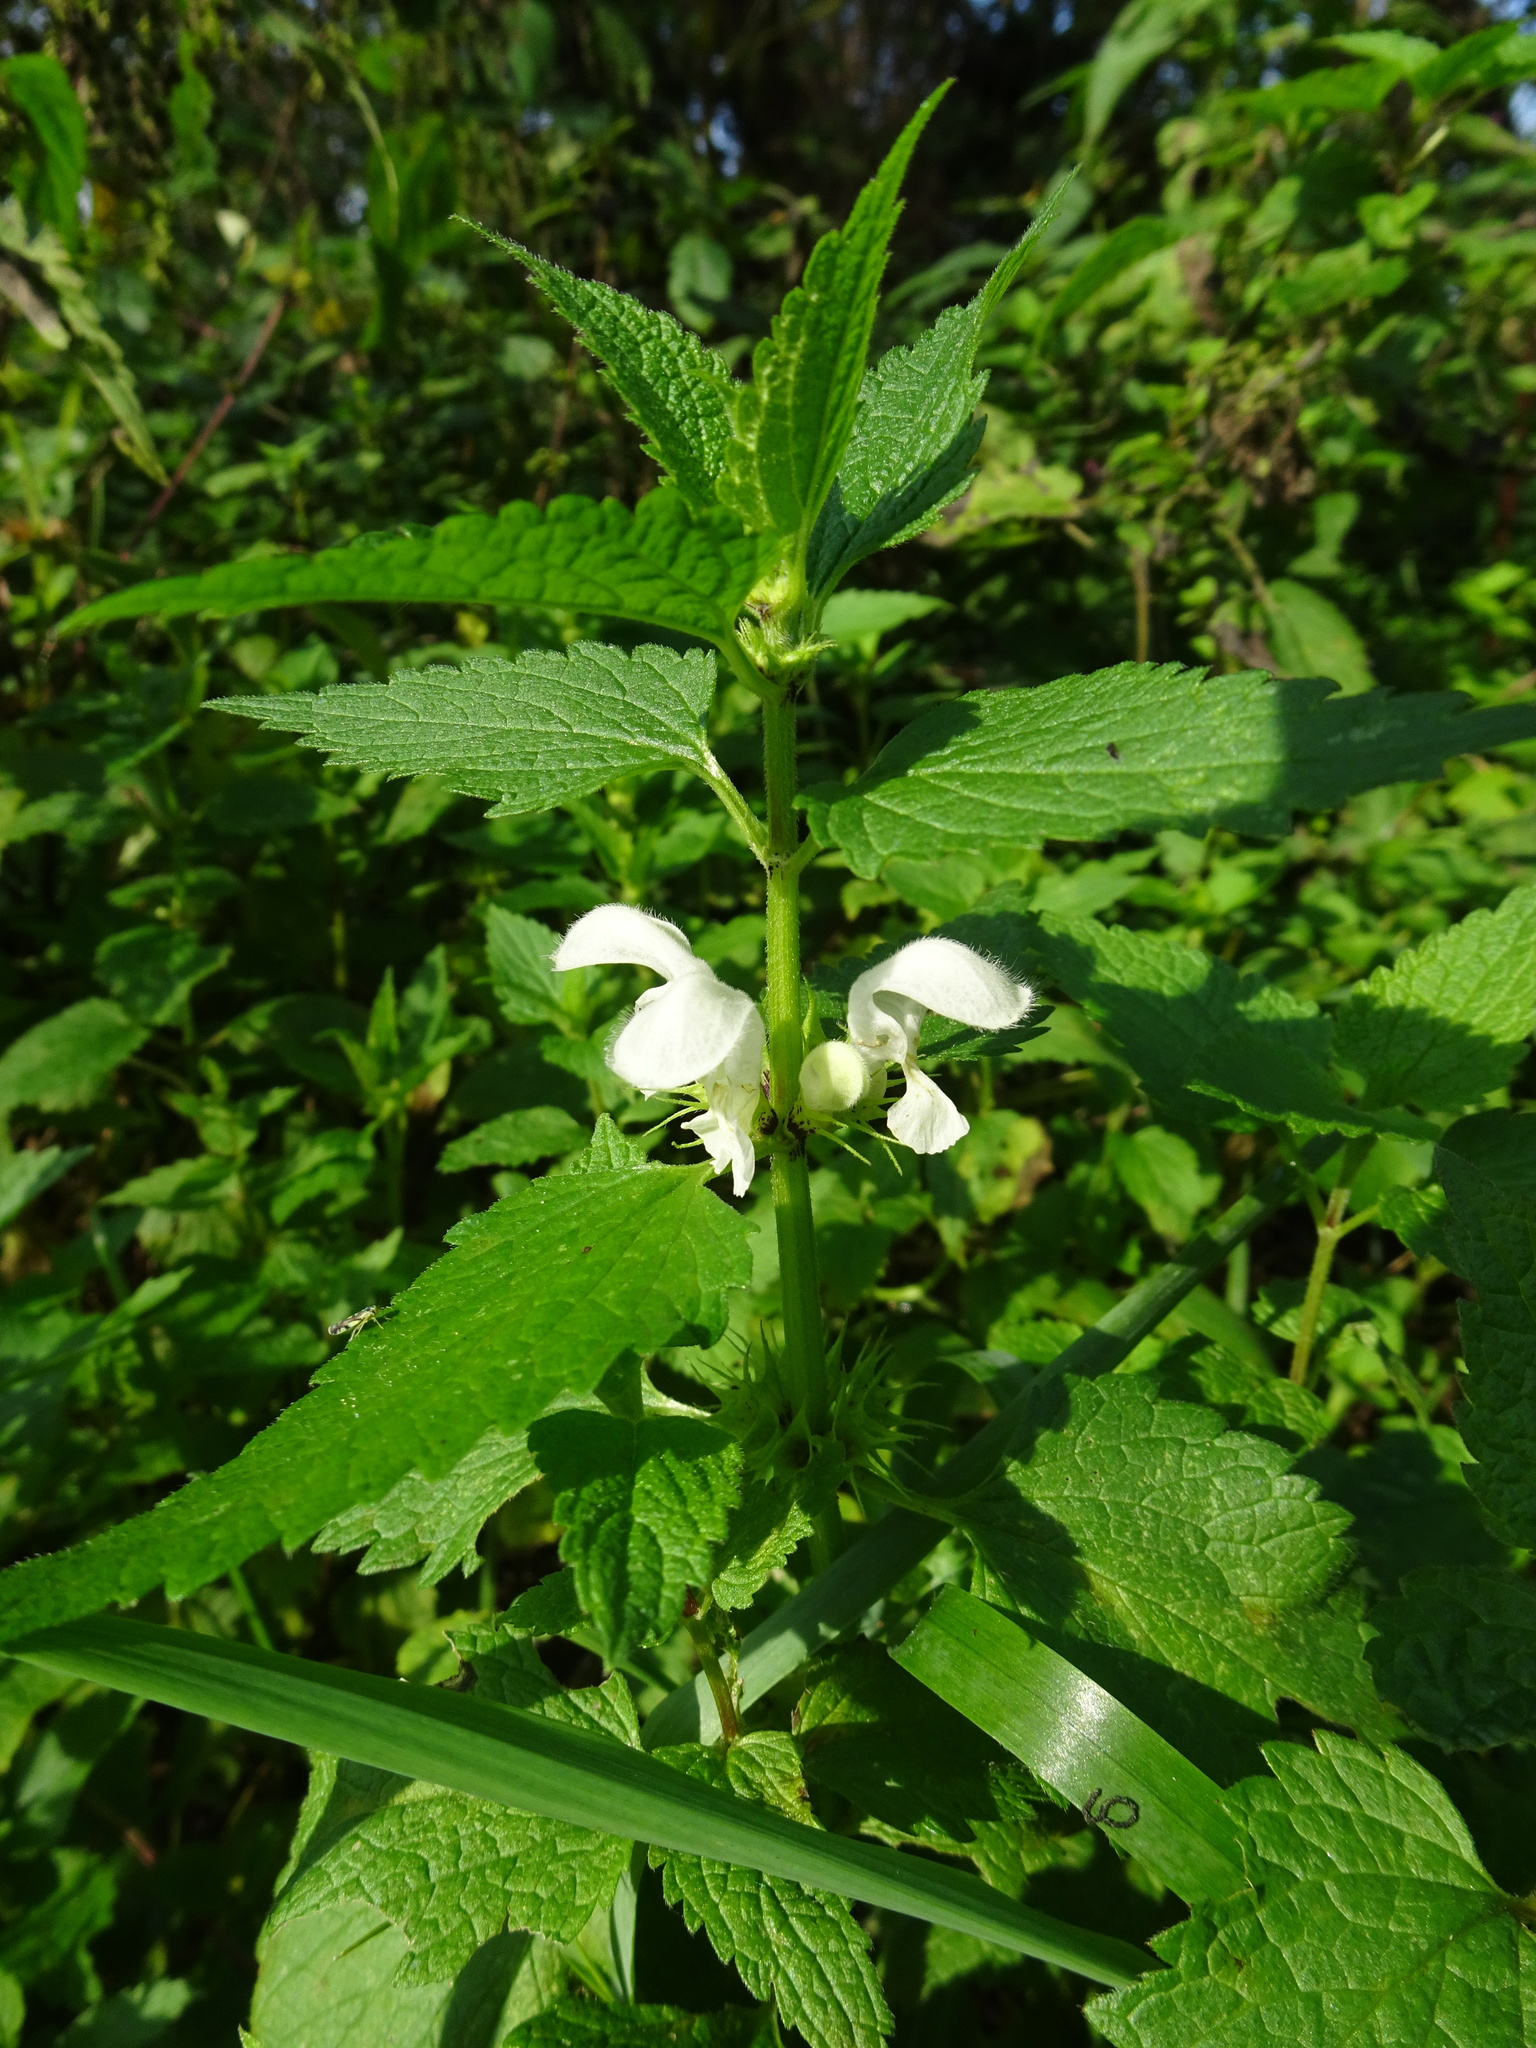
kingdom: Plantae
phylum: Tracheophyta
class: Magnoliopsida
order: Lamiales
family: Lamiaceae
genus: Lamium
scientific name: Lamium album
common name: White dead-nettle
